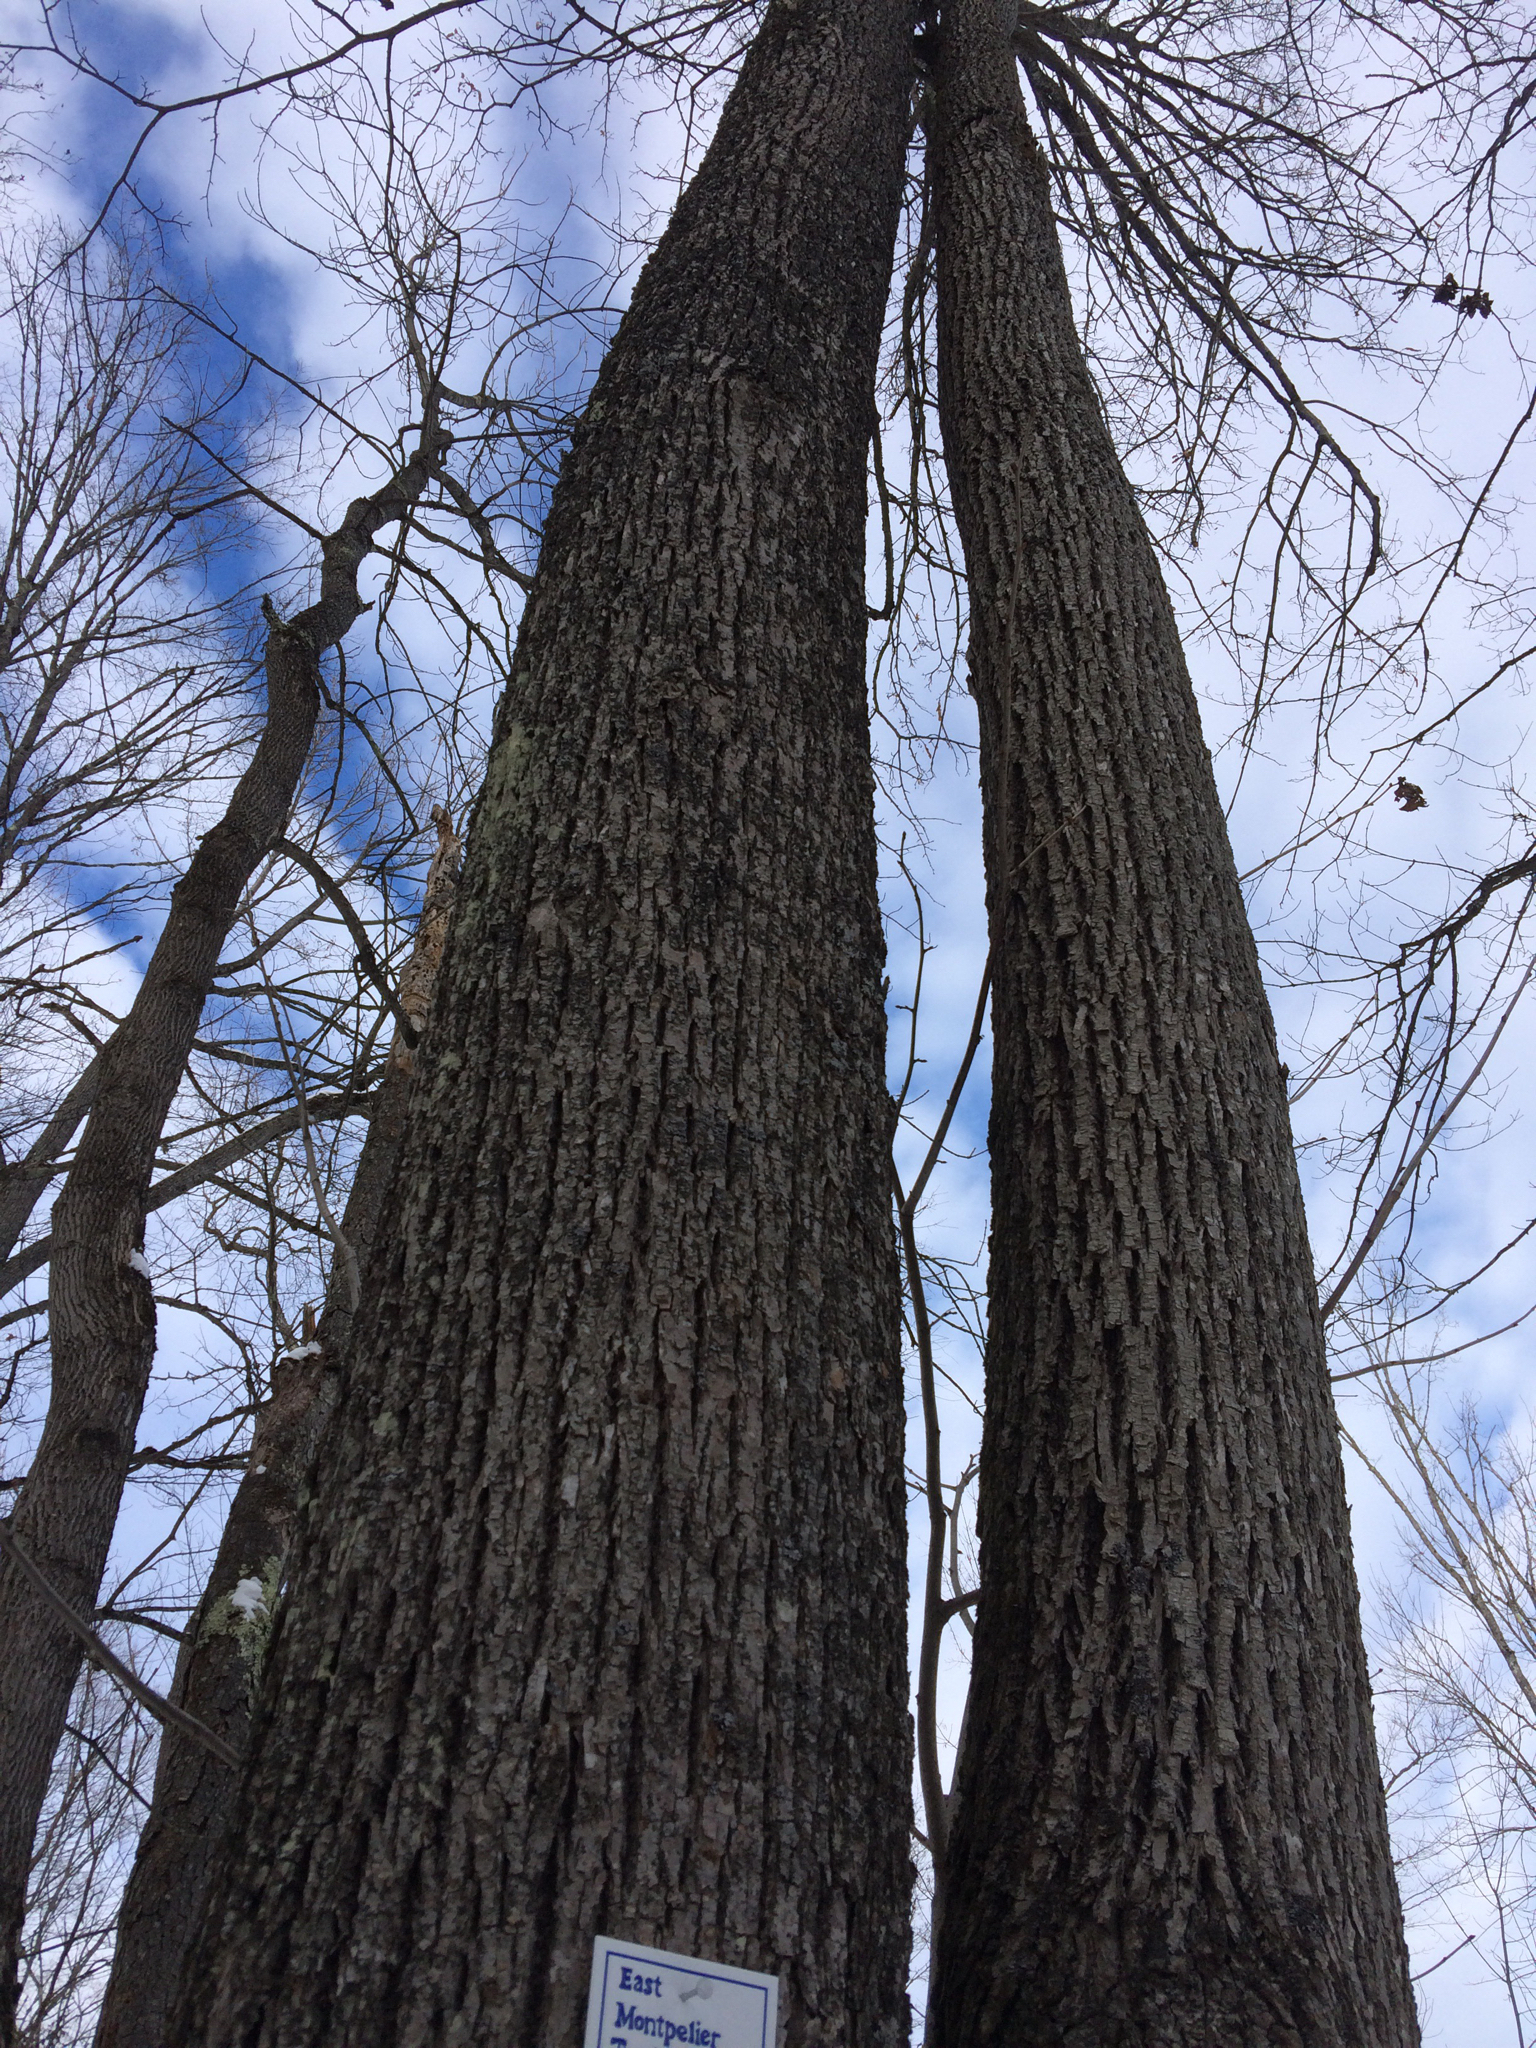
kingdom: Plantae
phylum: Tracheophyta
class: Magnoliopsida
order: Malvales
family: Malvaceae
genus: Tilia
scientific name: Tilia americana
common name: Basswood
